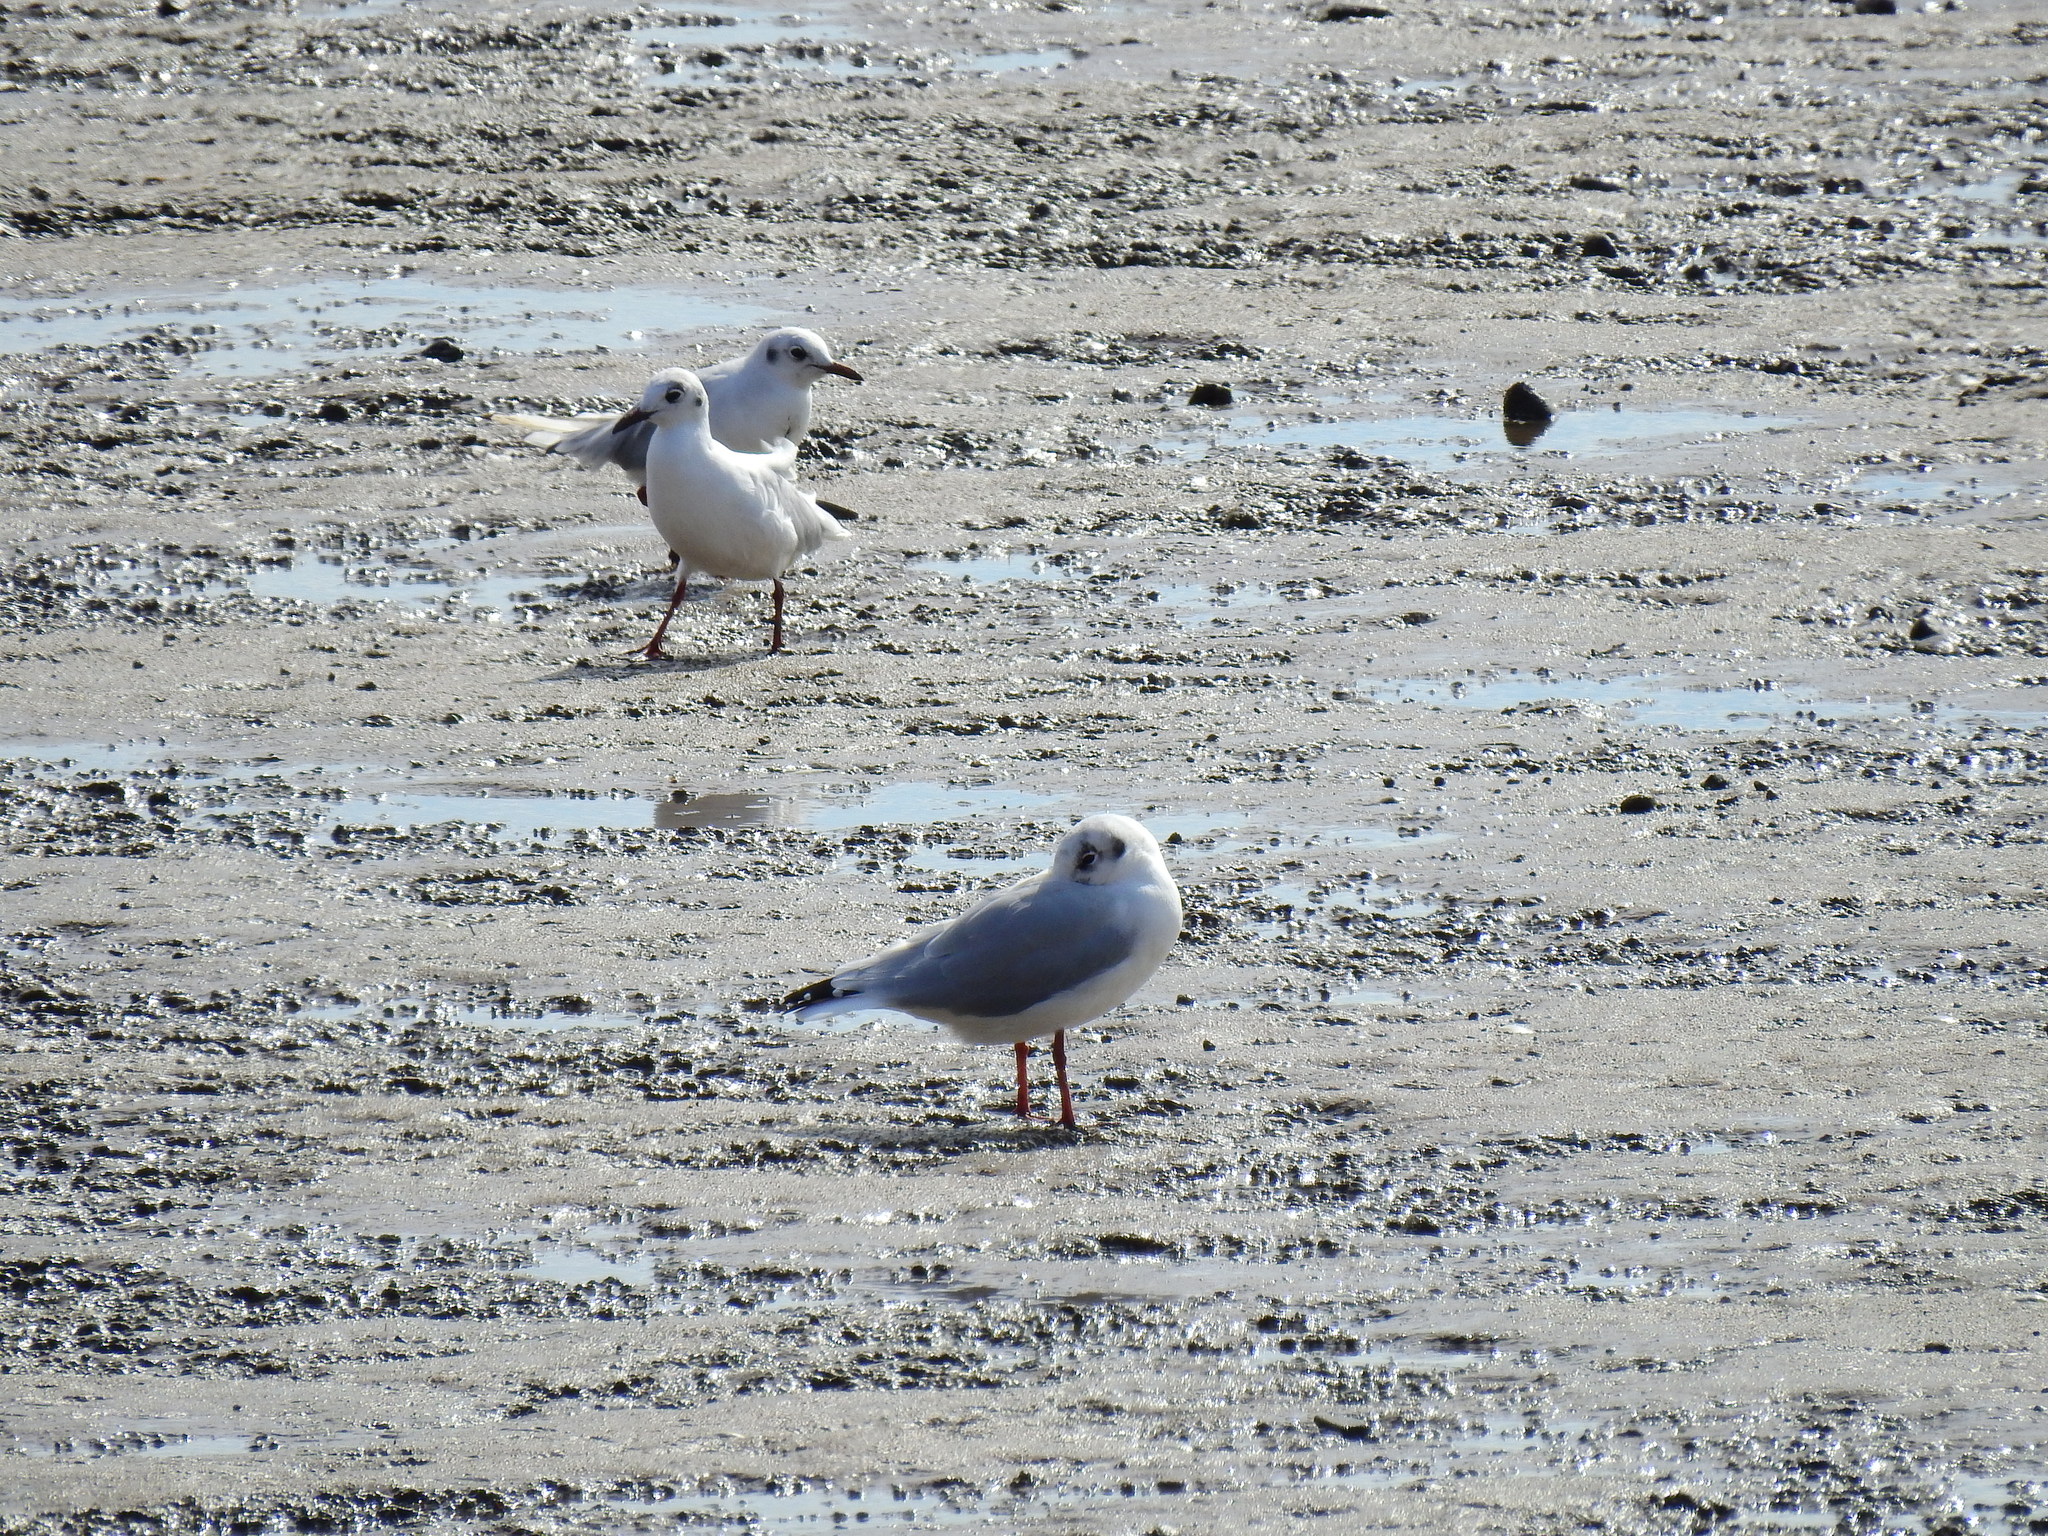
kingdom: Animalia
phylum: Chordata
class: Aves
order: Charadriiformes
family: Laridae
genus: Chroicocephalus
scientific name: Chroicocephalus ridibundus
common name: Black-headed gull
